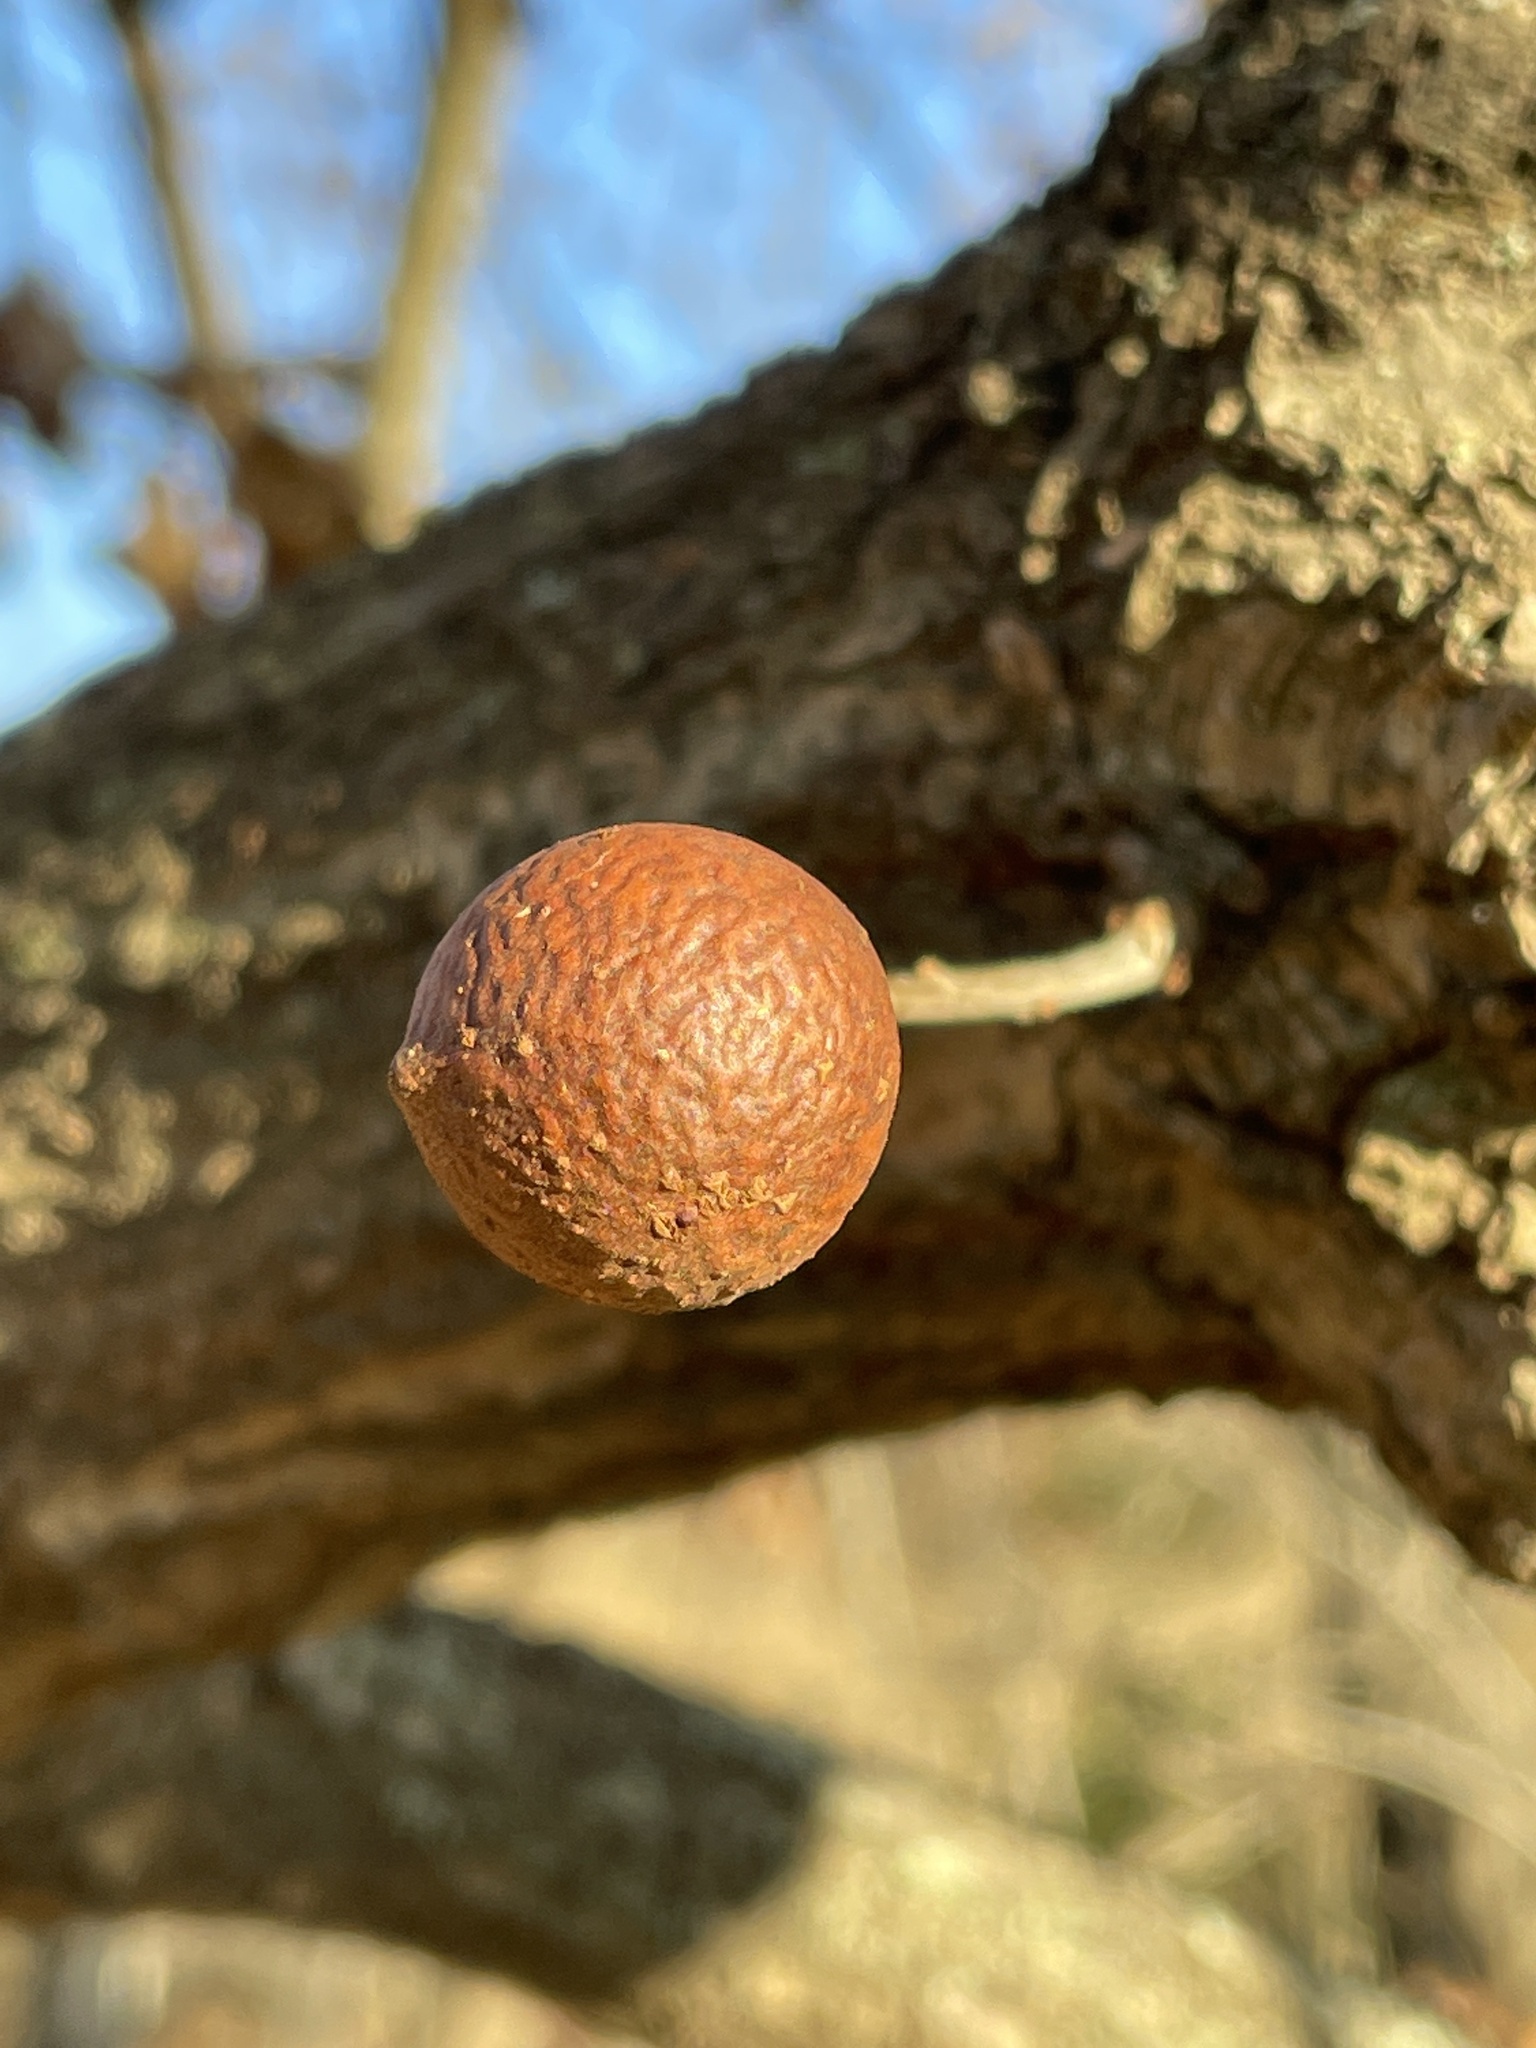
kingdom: Animalia
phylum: Arthropoda
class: Insecta
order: Hymenoptera
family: Cynipidae
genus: Andricus
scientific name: Andricus kollari
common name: Marble gall
